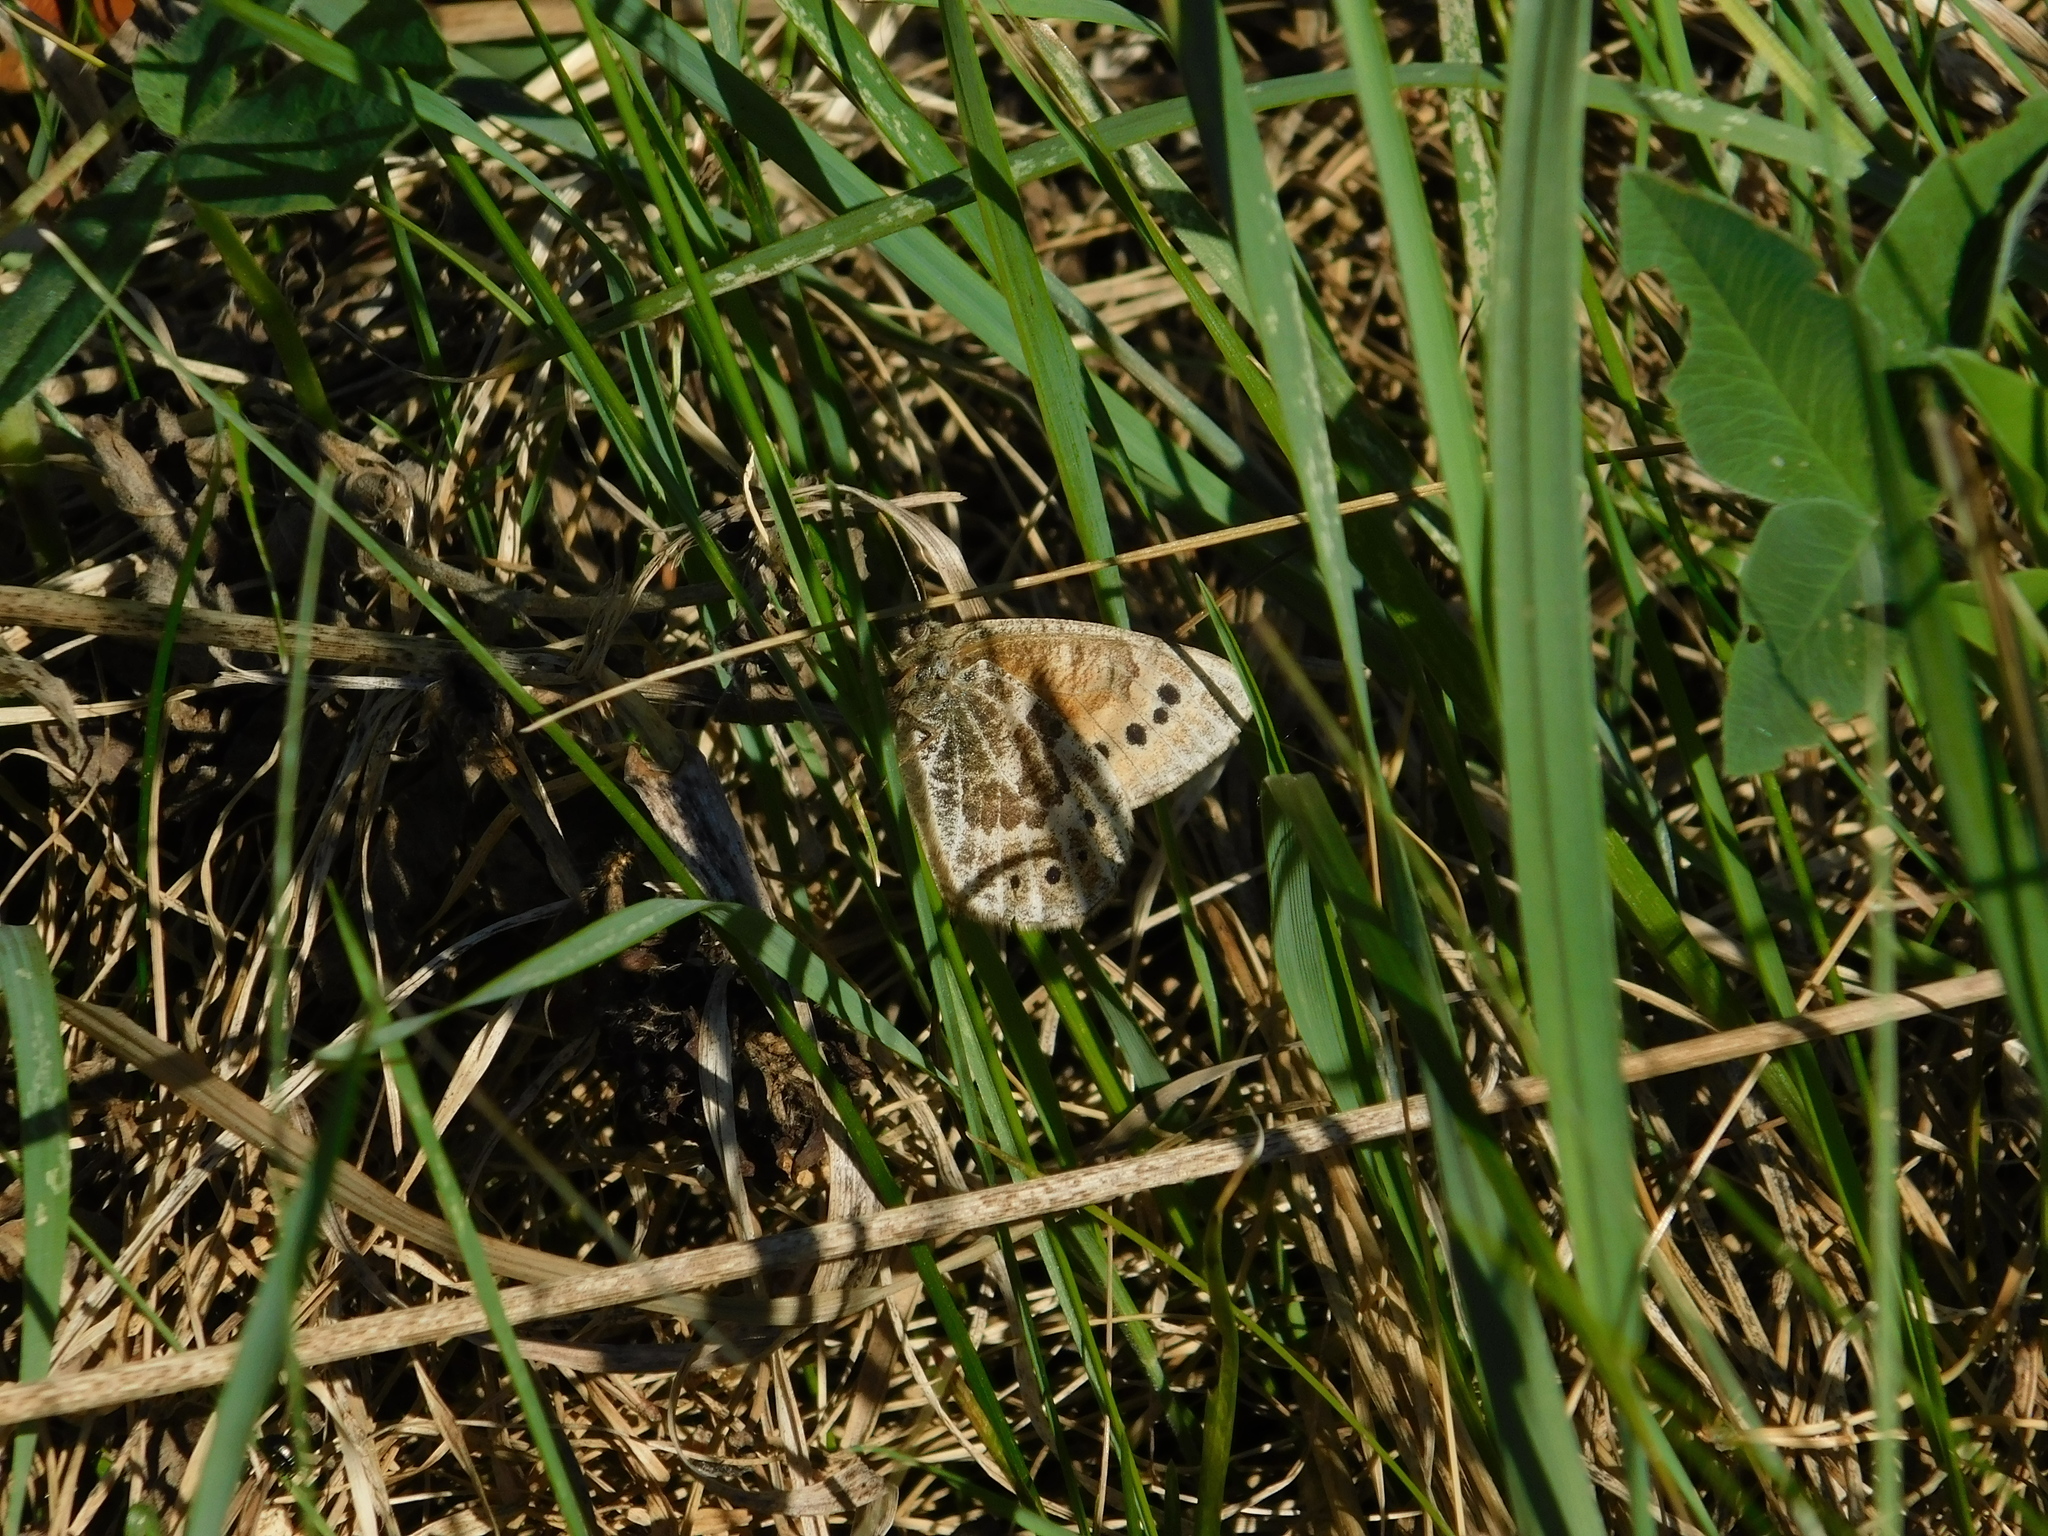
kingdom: Animalia
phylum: Arthropoda
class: Insecta
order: Lepidoptera
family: Nymphalidae
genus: Oeneis
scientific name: Oeneis tarpeia
